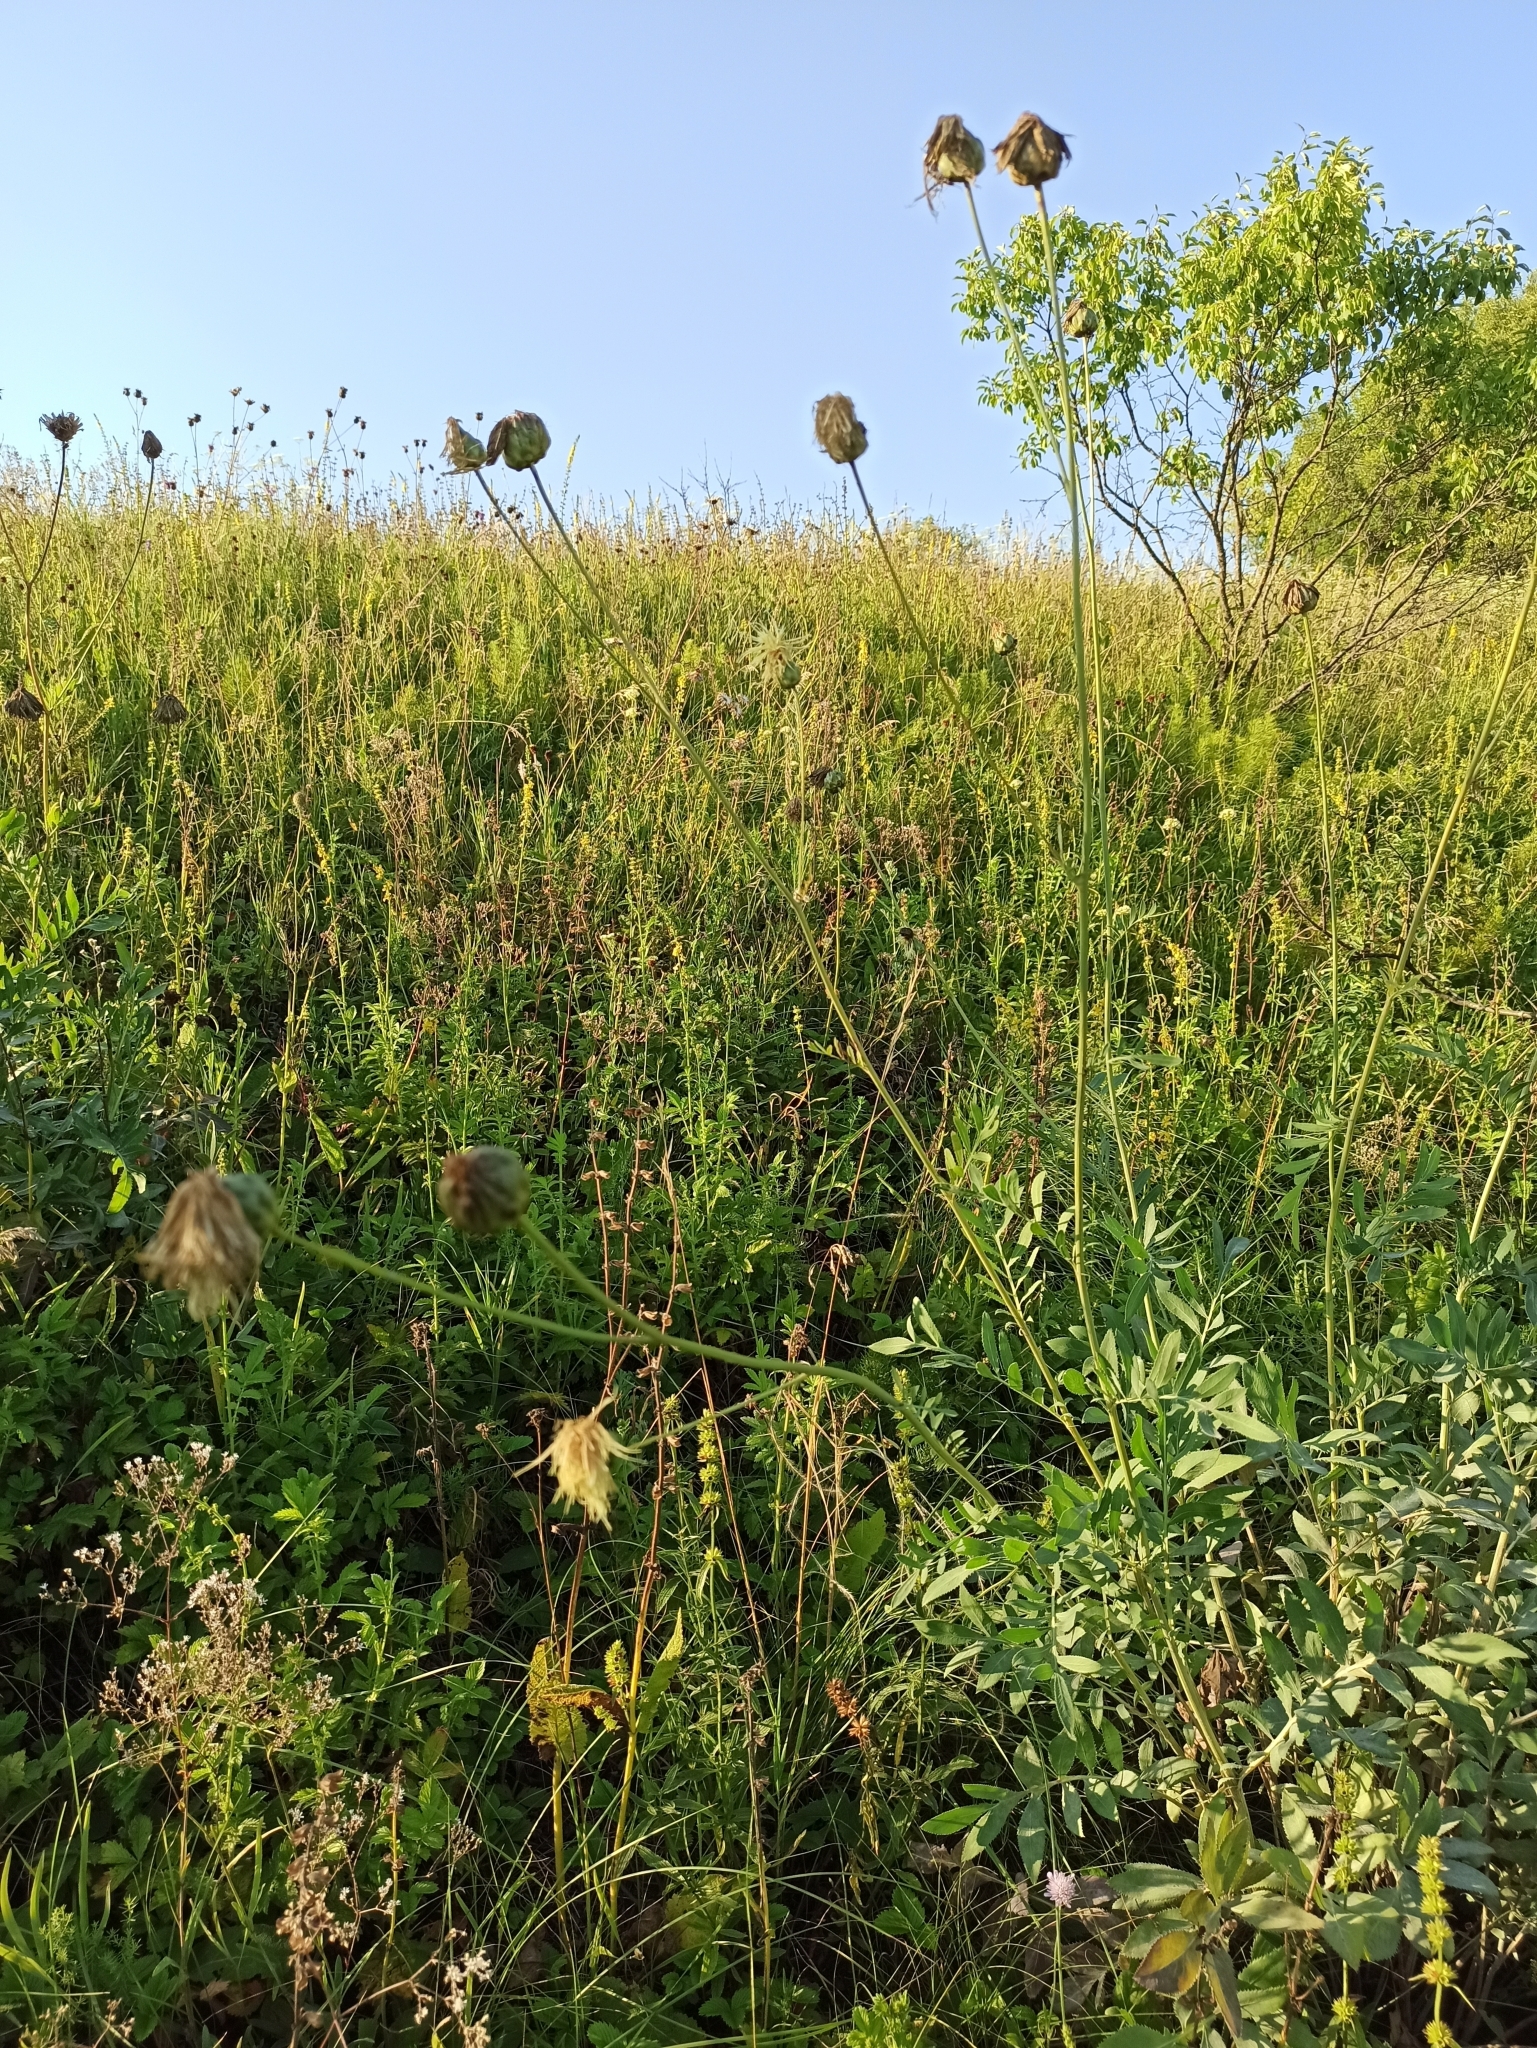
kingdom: Plantae
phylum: Tracheophyta
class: Magnoliopsida
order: Asterales
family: Asteraceae
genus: Rhaponticoides
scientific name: Rhaponticoides ruthenica
